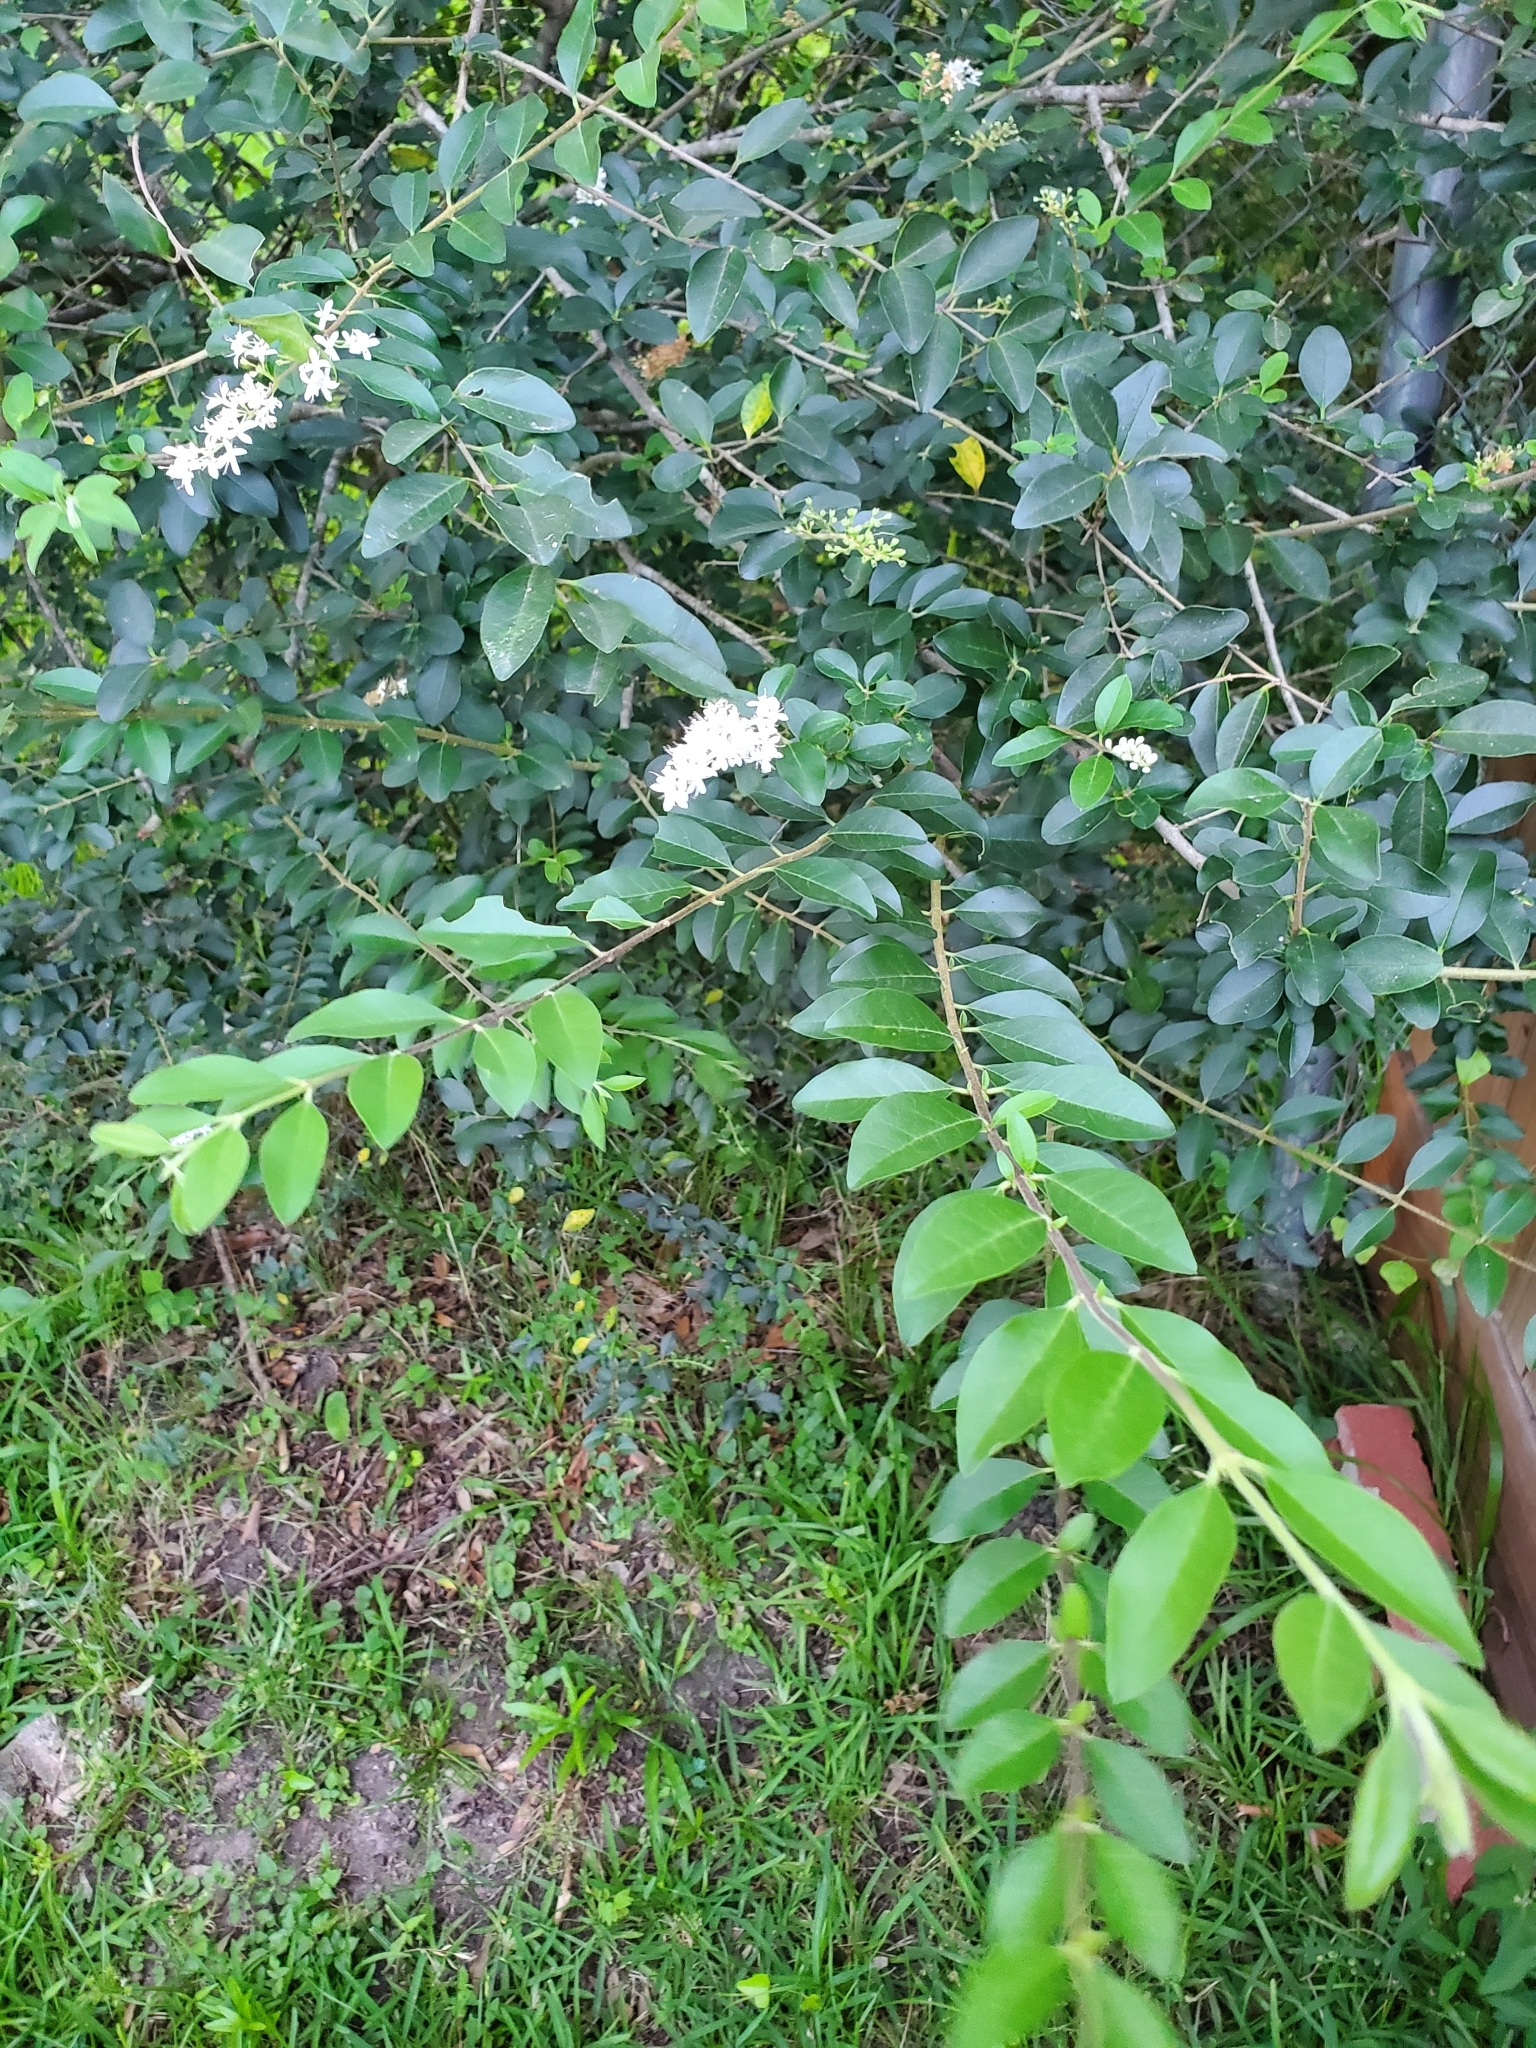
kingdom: Plantae
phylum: Tracheophyta
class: Magnoliopsida
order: Lamiales
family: Oleaceae
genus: Ligustrum
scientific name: Ligustrum sinense
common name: Chinese privet
